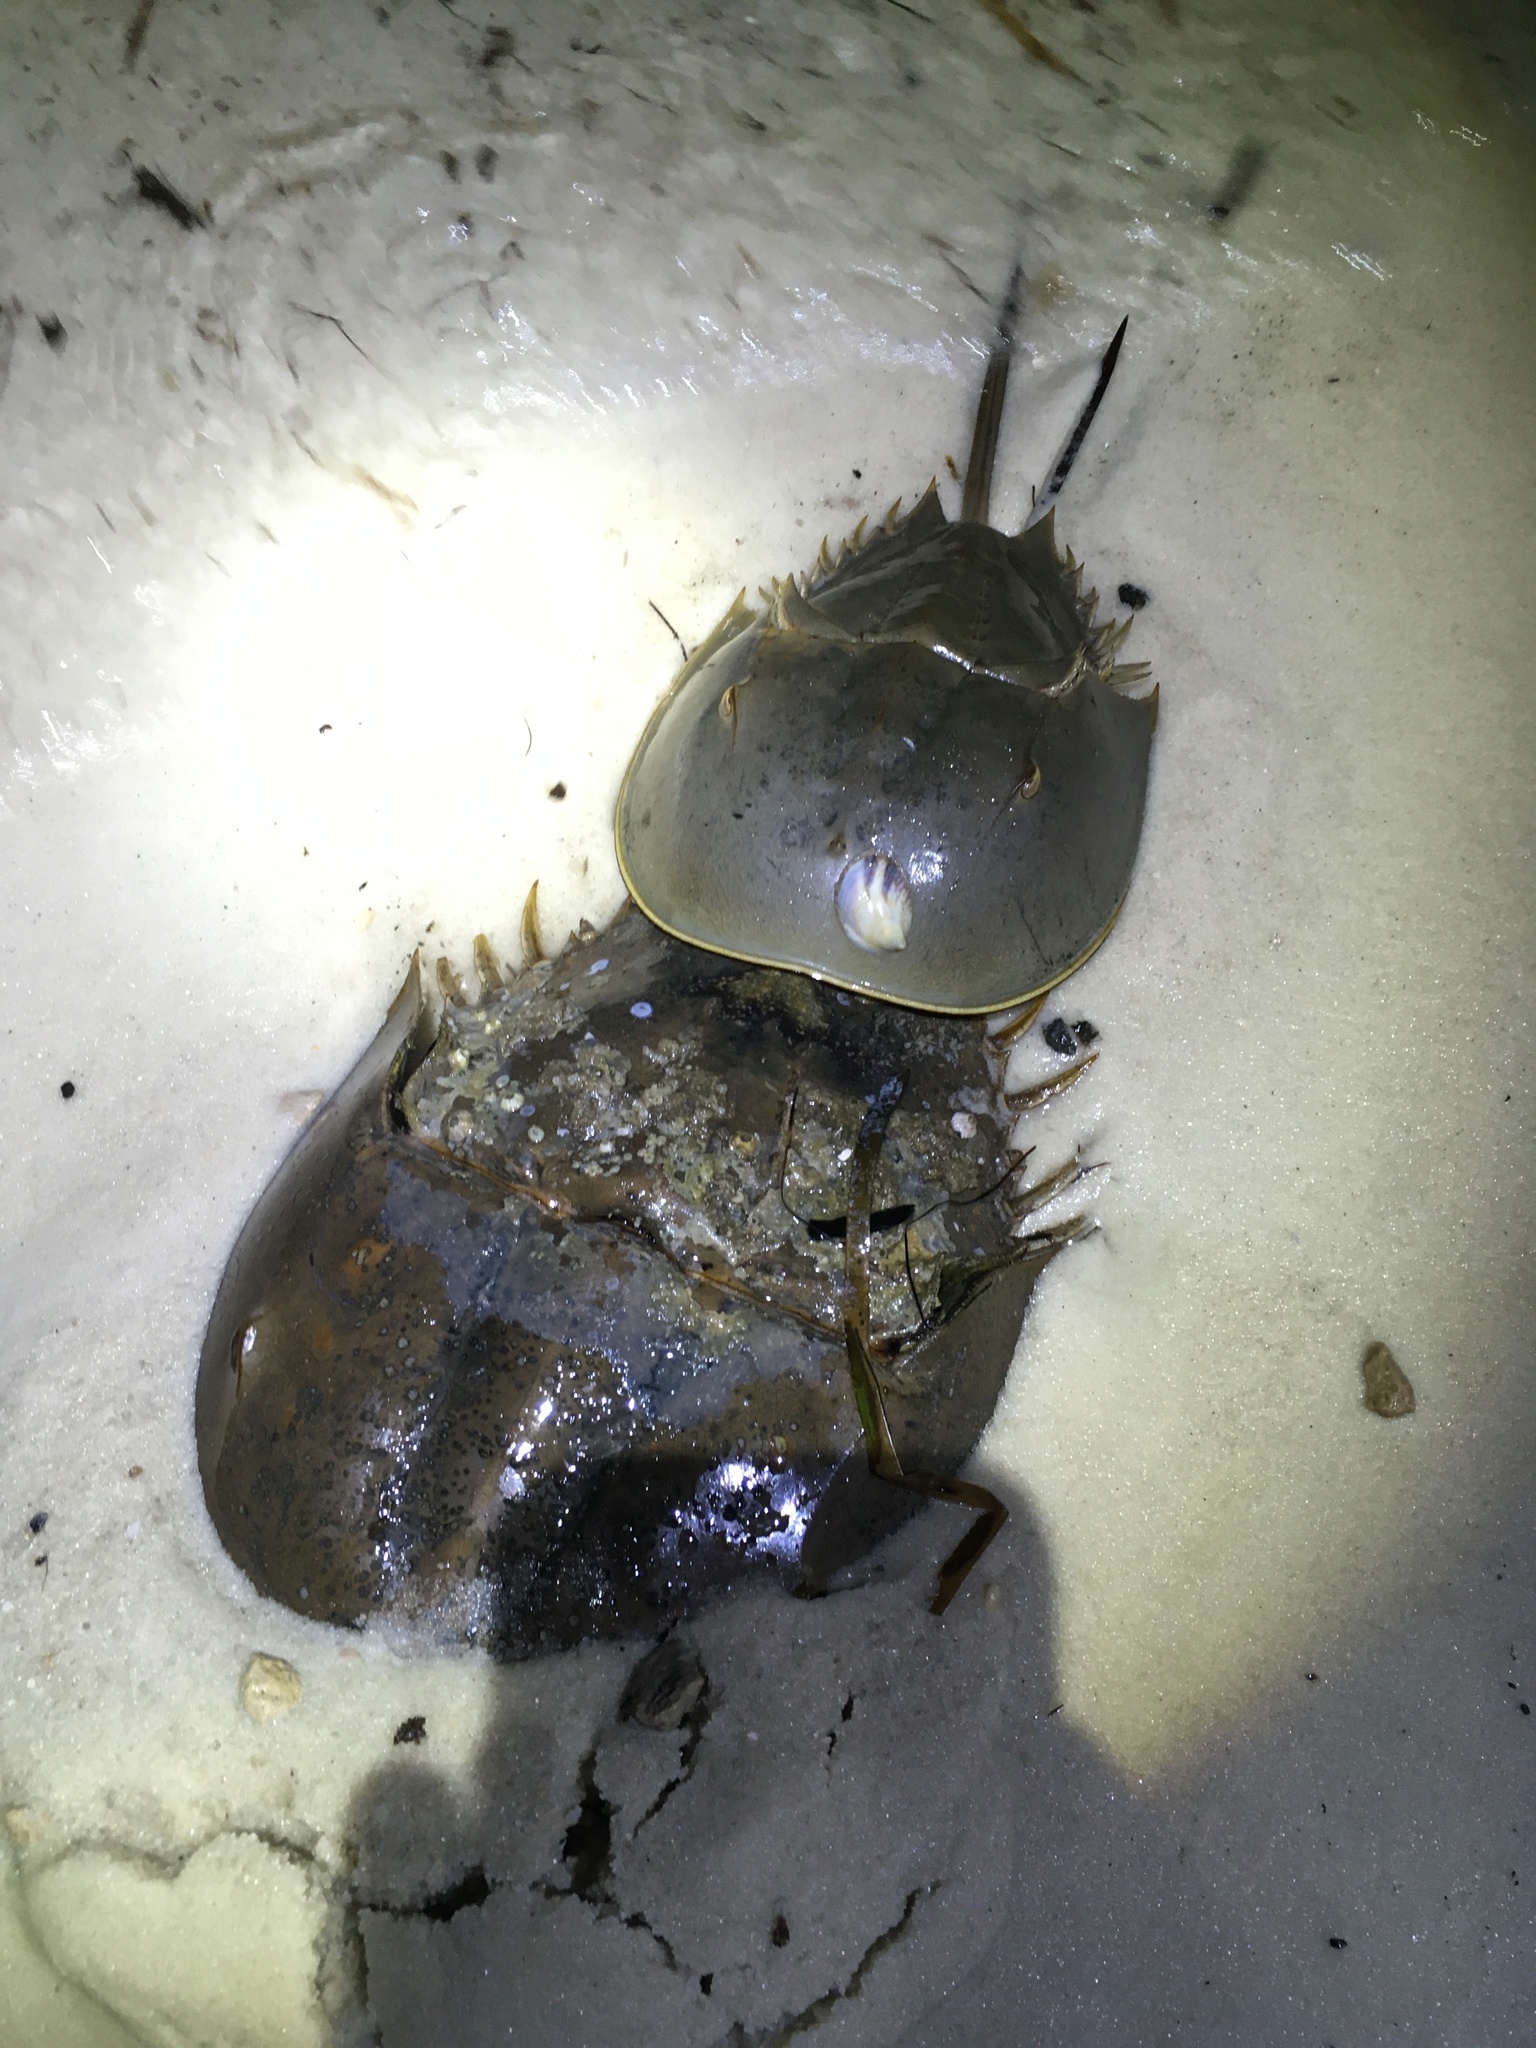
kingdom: Animalia
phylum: Arthropoda
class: Merostomata
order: Xiphosurida
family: Limulidae
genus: Limulus
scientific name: Limulus polyphemus
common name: Horseshoe crab
